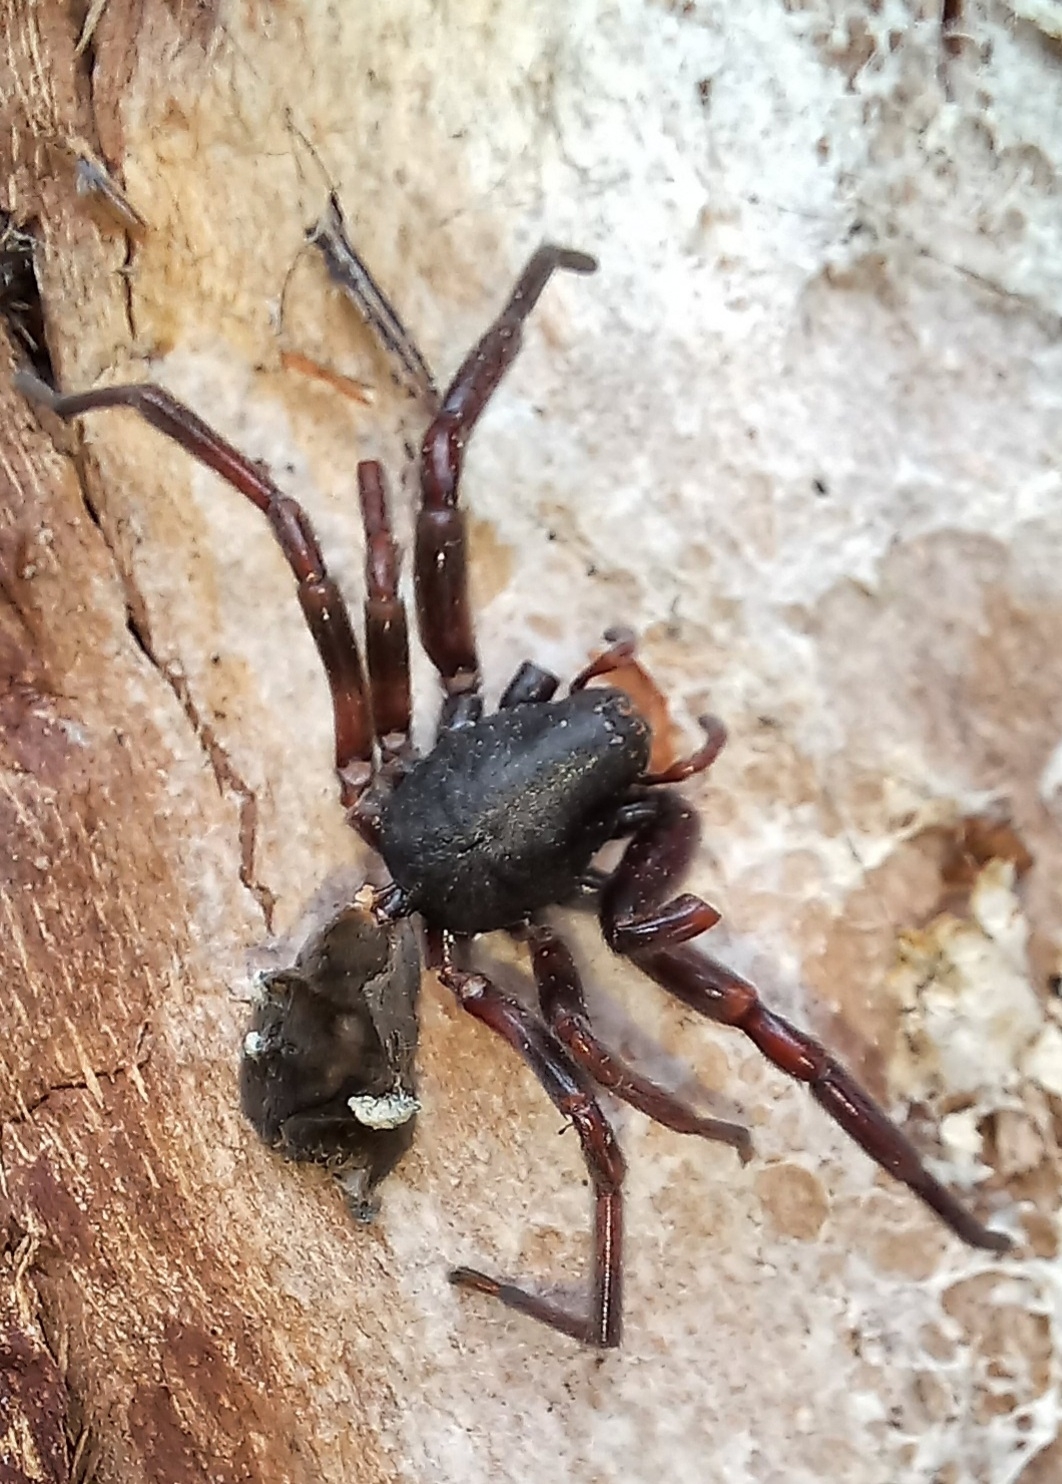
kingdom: Animalia
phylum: Arthropoda
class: Arachnida
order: Araneae
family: Lamponidae
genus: Lampona
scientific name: Lampona cylindrata
